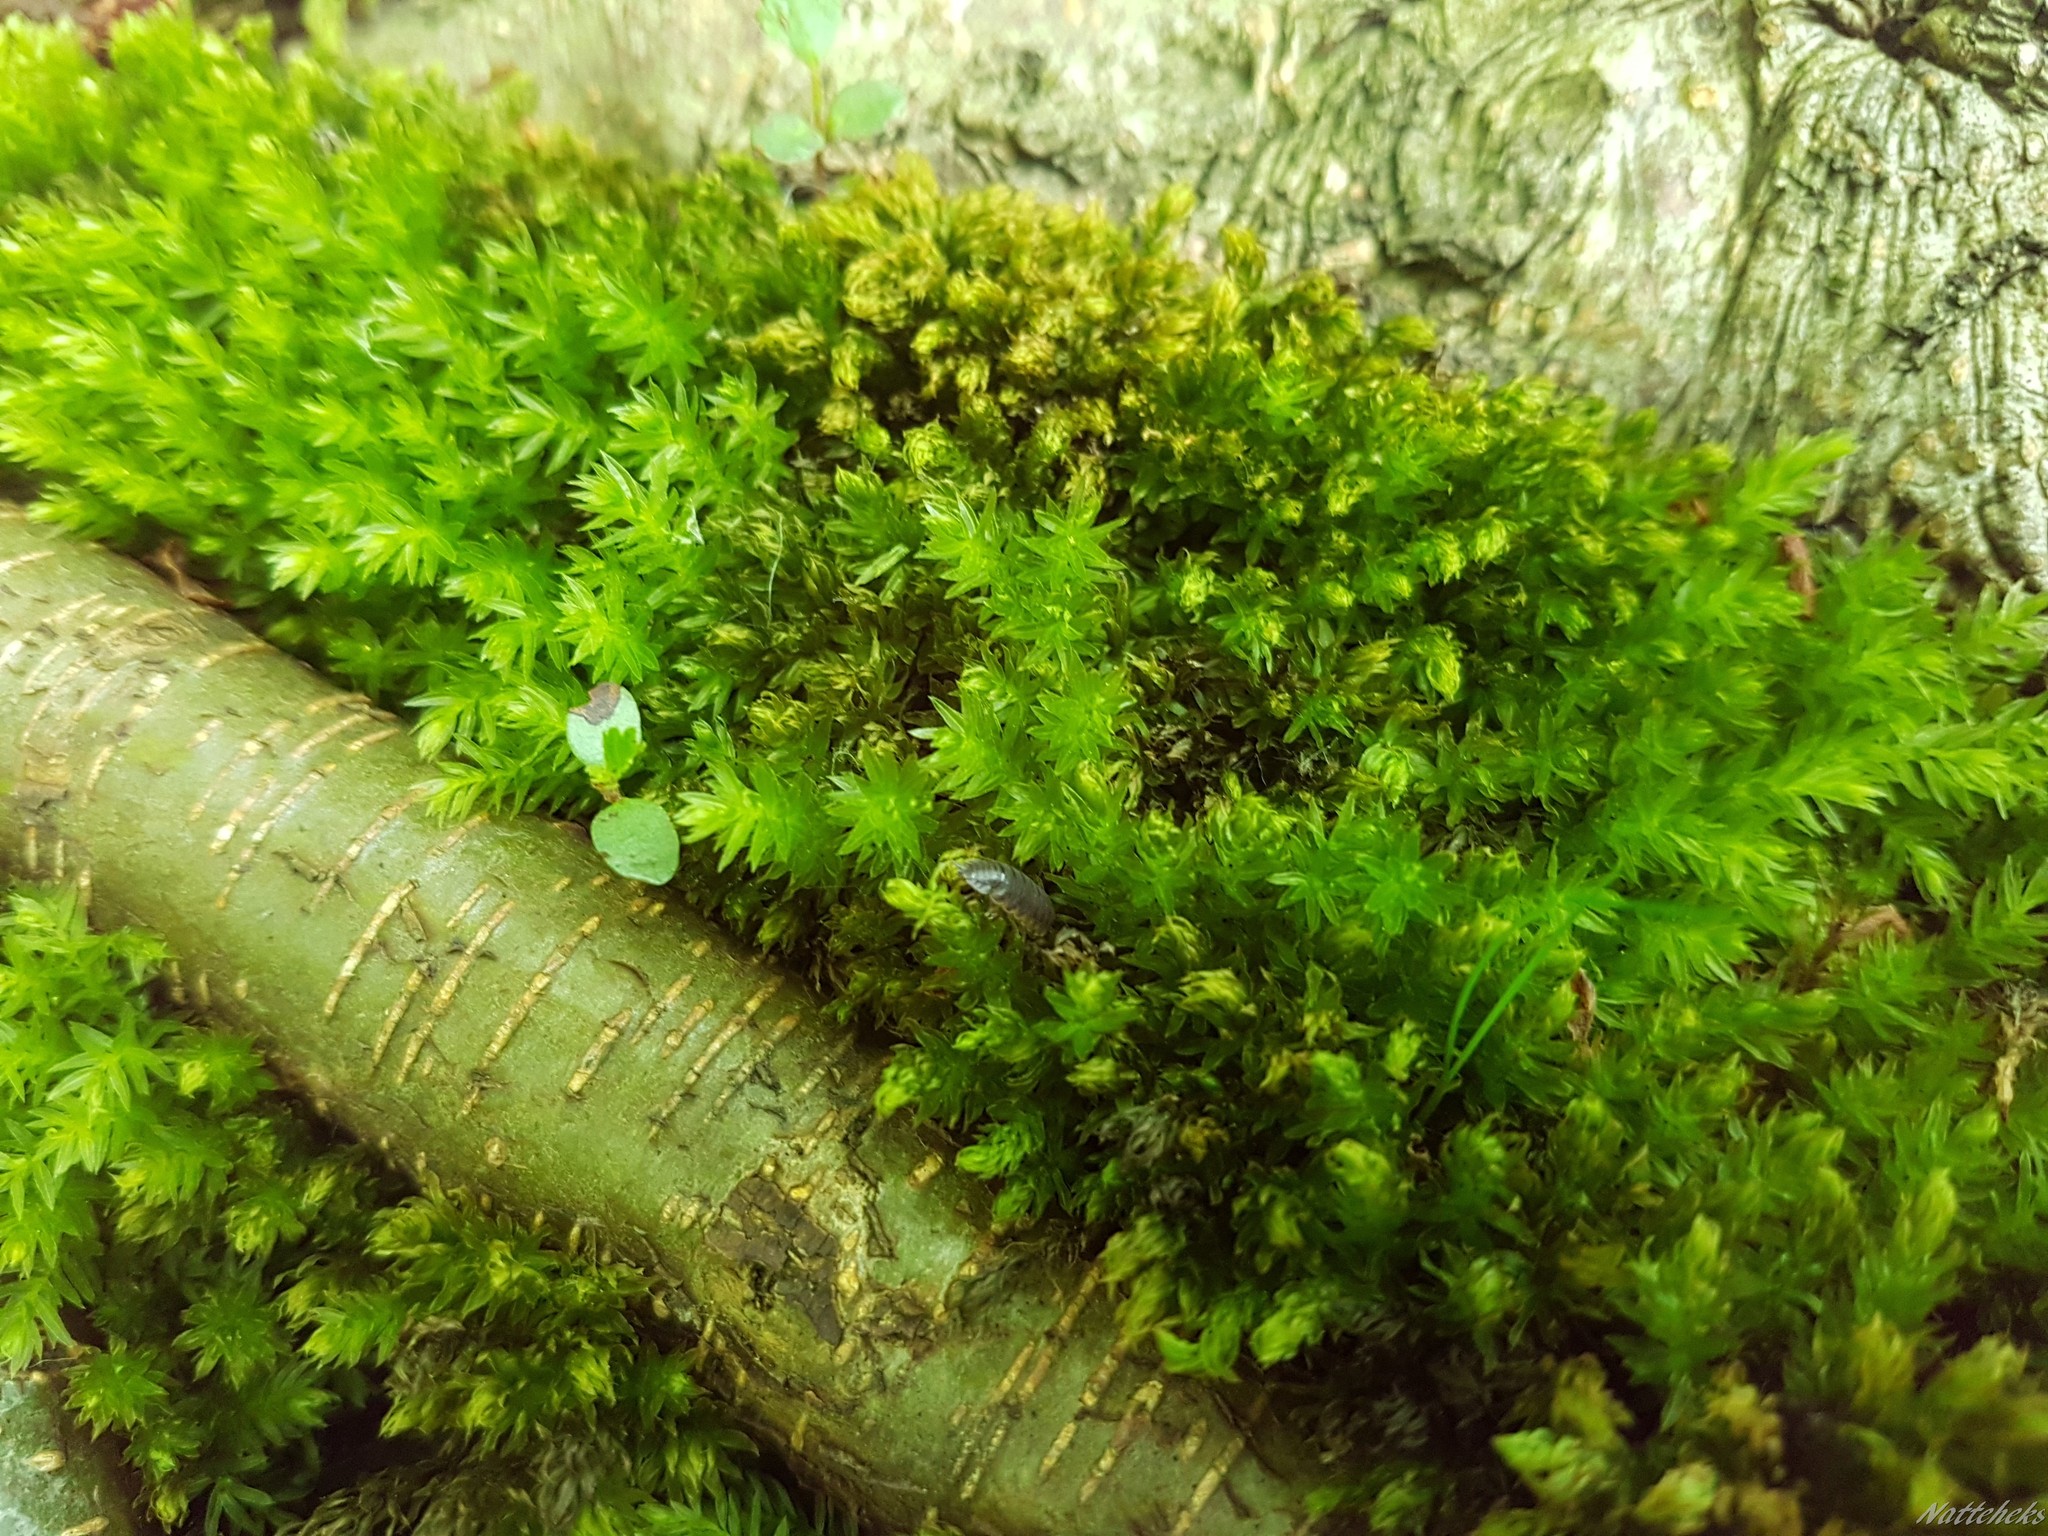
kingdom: Plantae
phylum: Bryophyta
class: Bryopsida
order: Bryales
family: Mniaceae
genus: Mnium
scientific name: Mnium hornum
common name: Swan's-neck leafy moss
